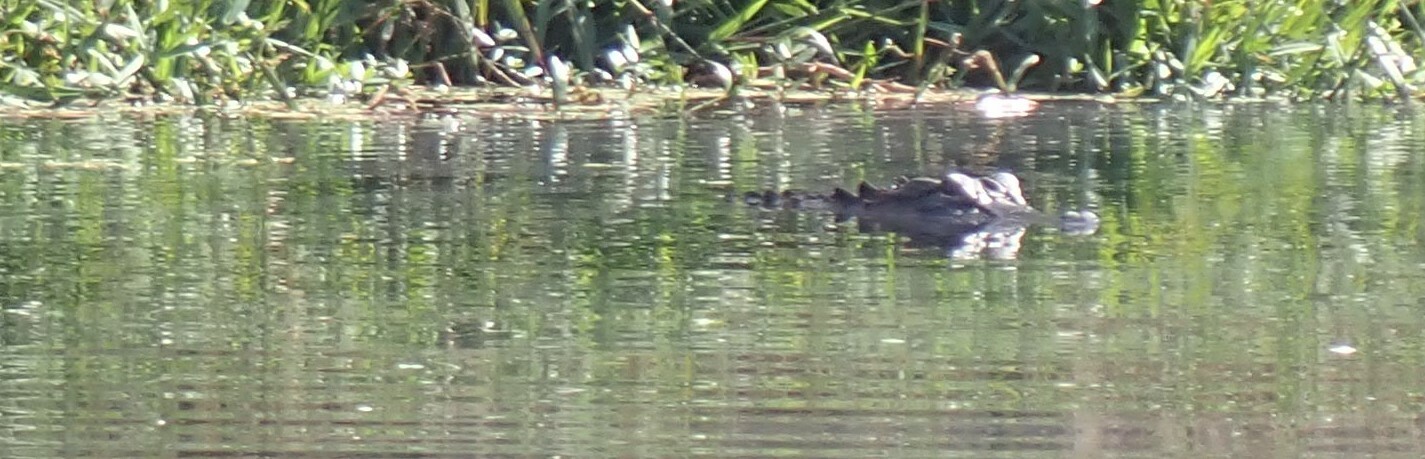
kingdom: Animalia
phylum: Chordata
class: Crocodylia
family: Alligatoridae
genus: Alligator
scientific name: Alligator mississippiensis
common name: American alligator
